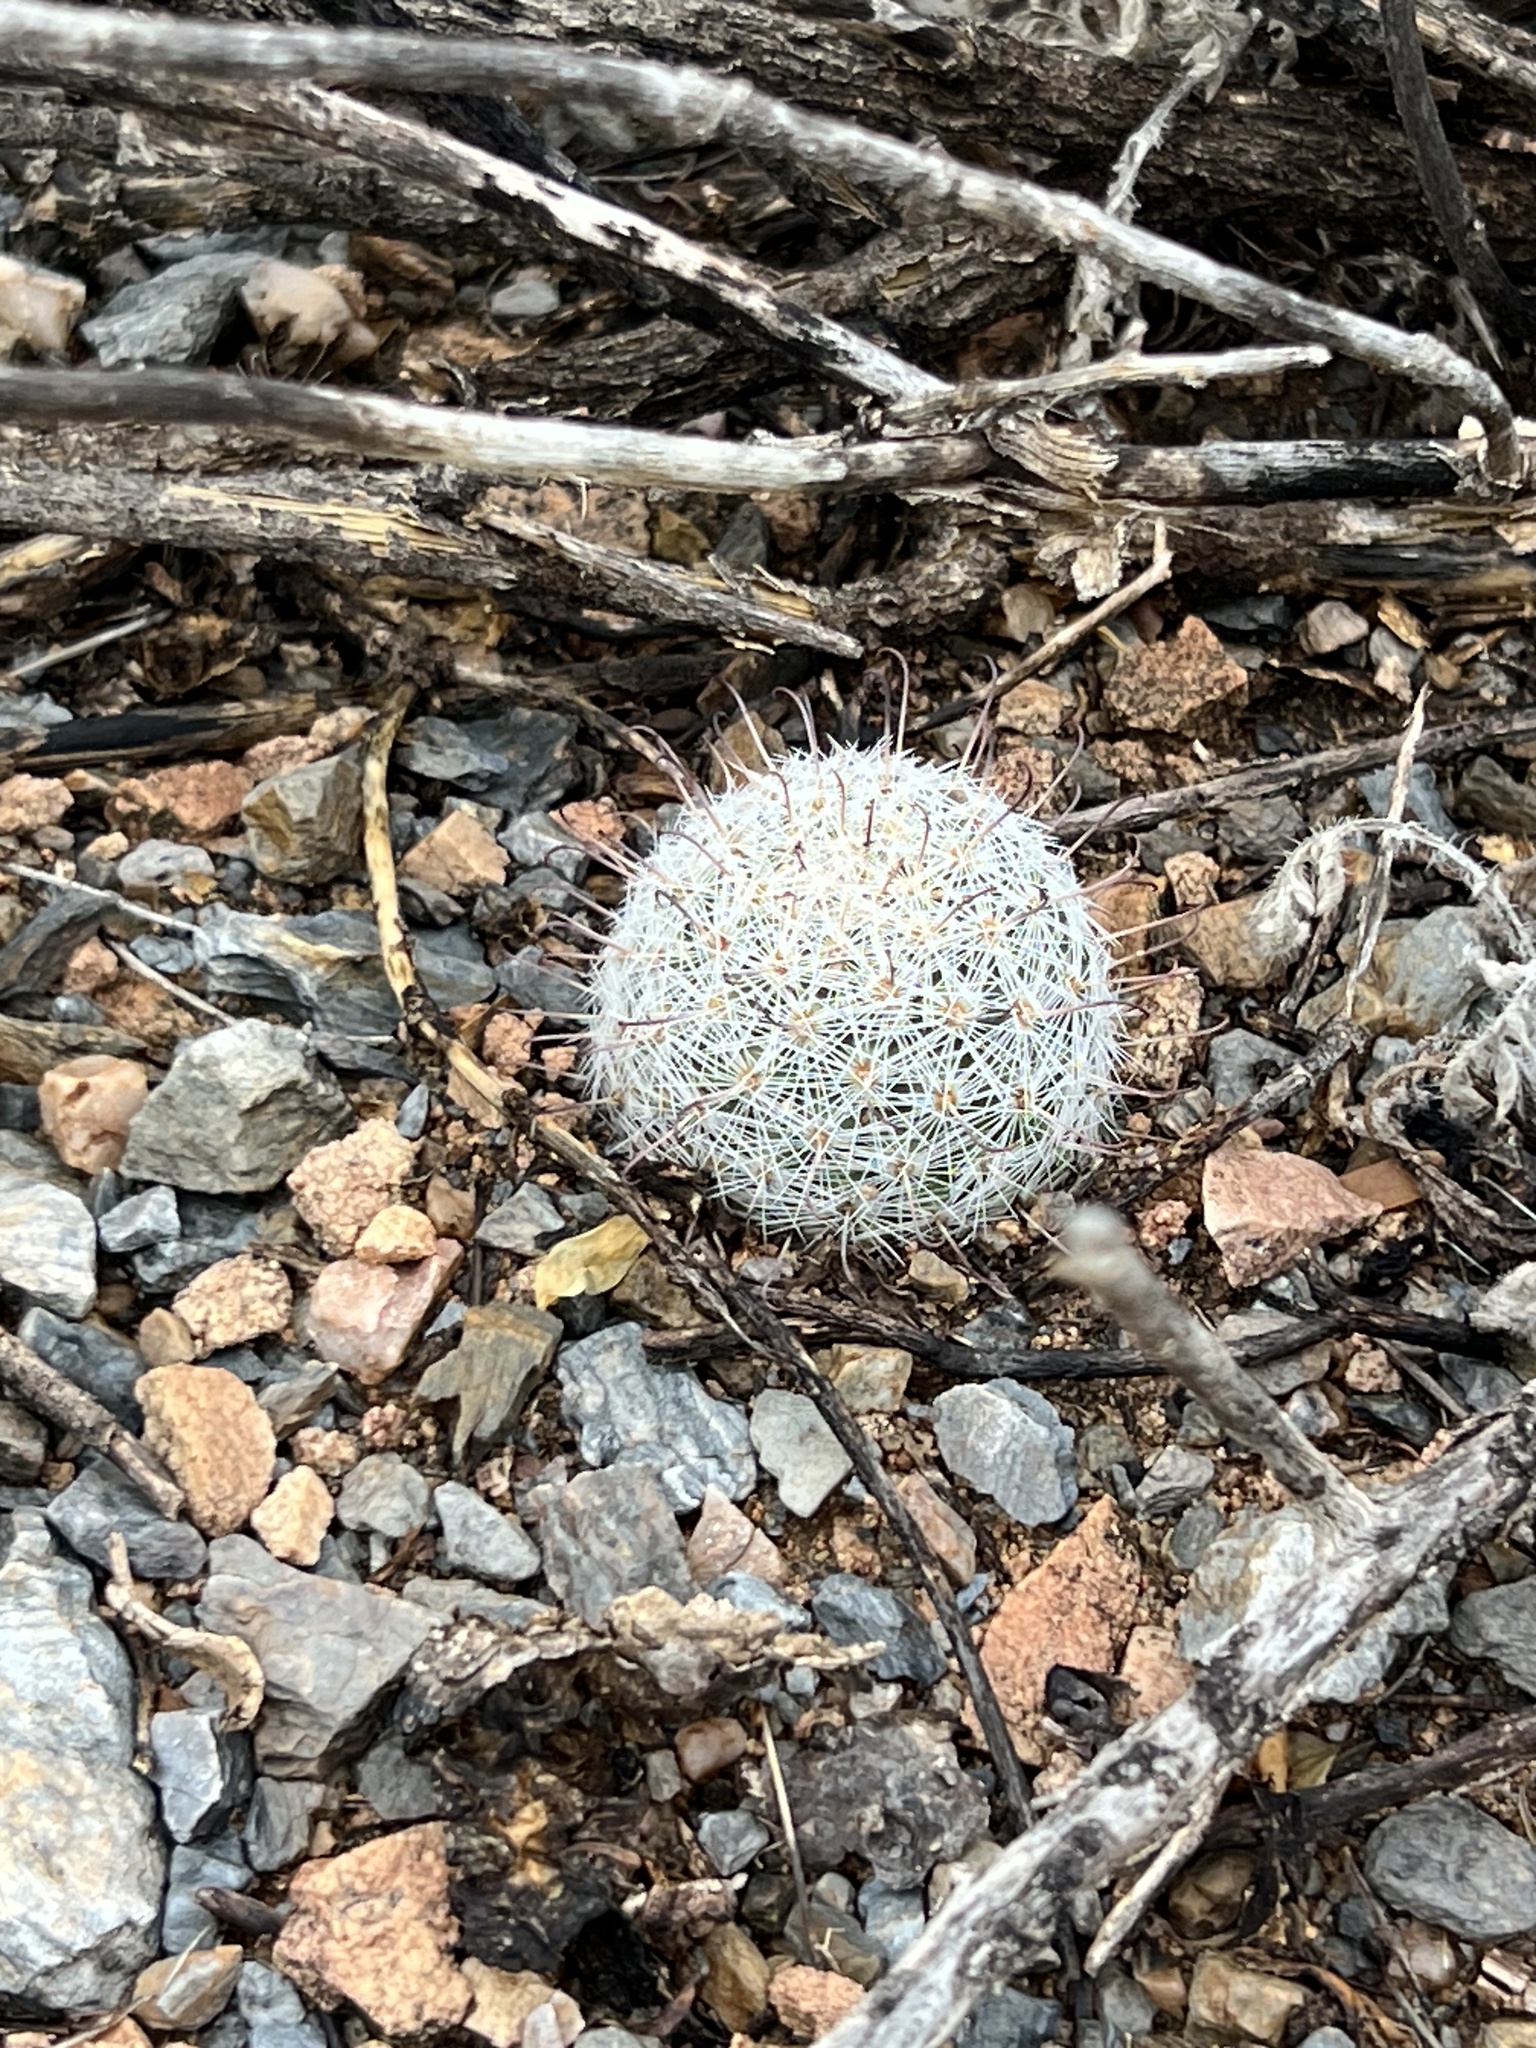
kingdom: Plantae
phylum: Tracheophyta
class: Magnoliopsida
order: Caryophyllales
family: Cactaceae
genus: Cochemiea
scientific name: Cochemiea grahamii
